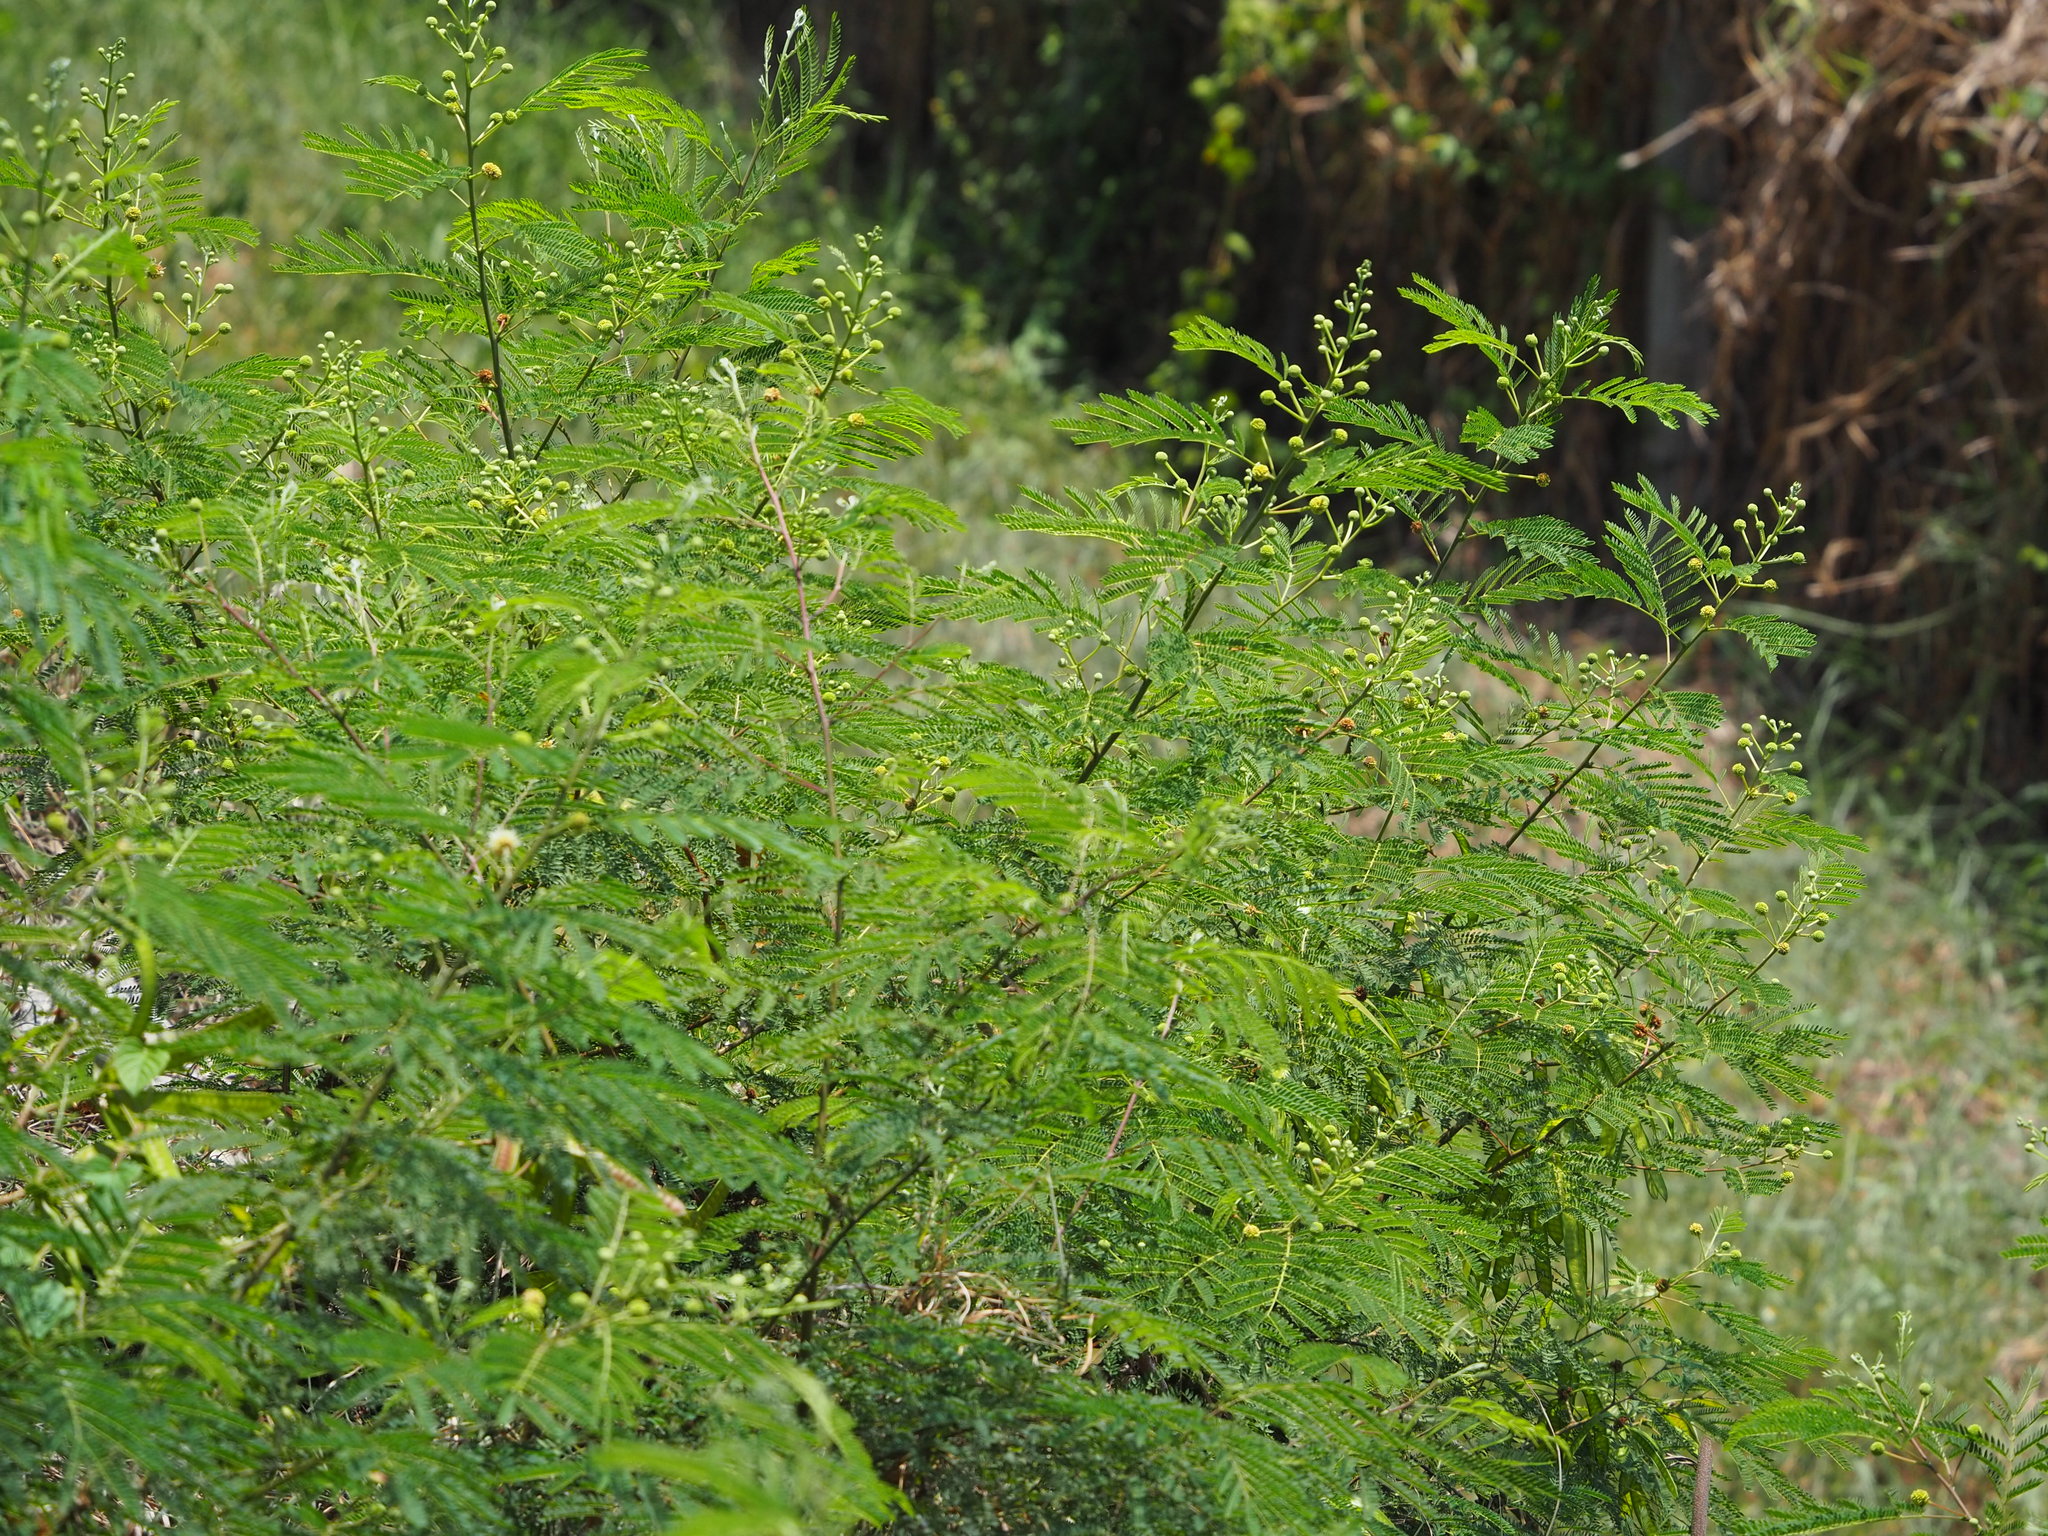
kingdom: Plantae
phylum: Tracheophyta
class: Magnoliopsida
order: Fabales
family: Fabaceae
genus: Leucaena
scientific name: Leucaena leucocephala
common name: White leadtree
